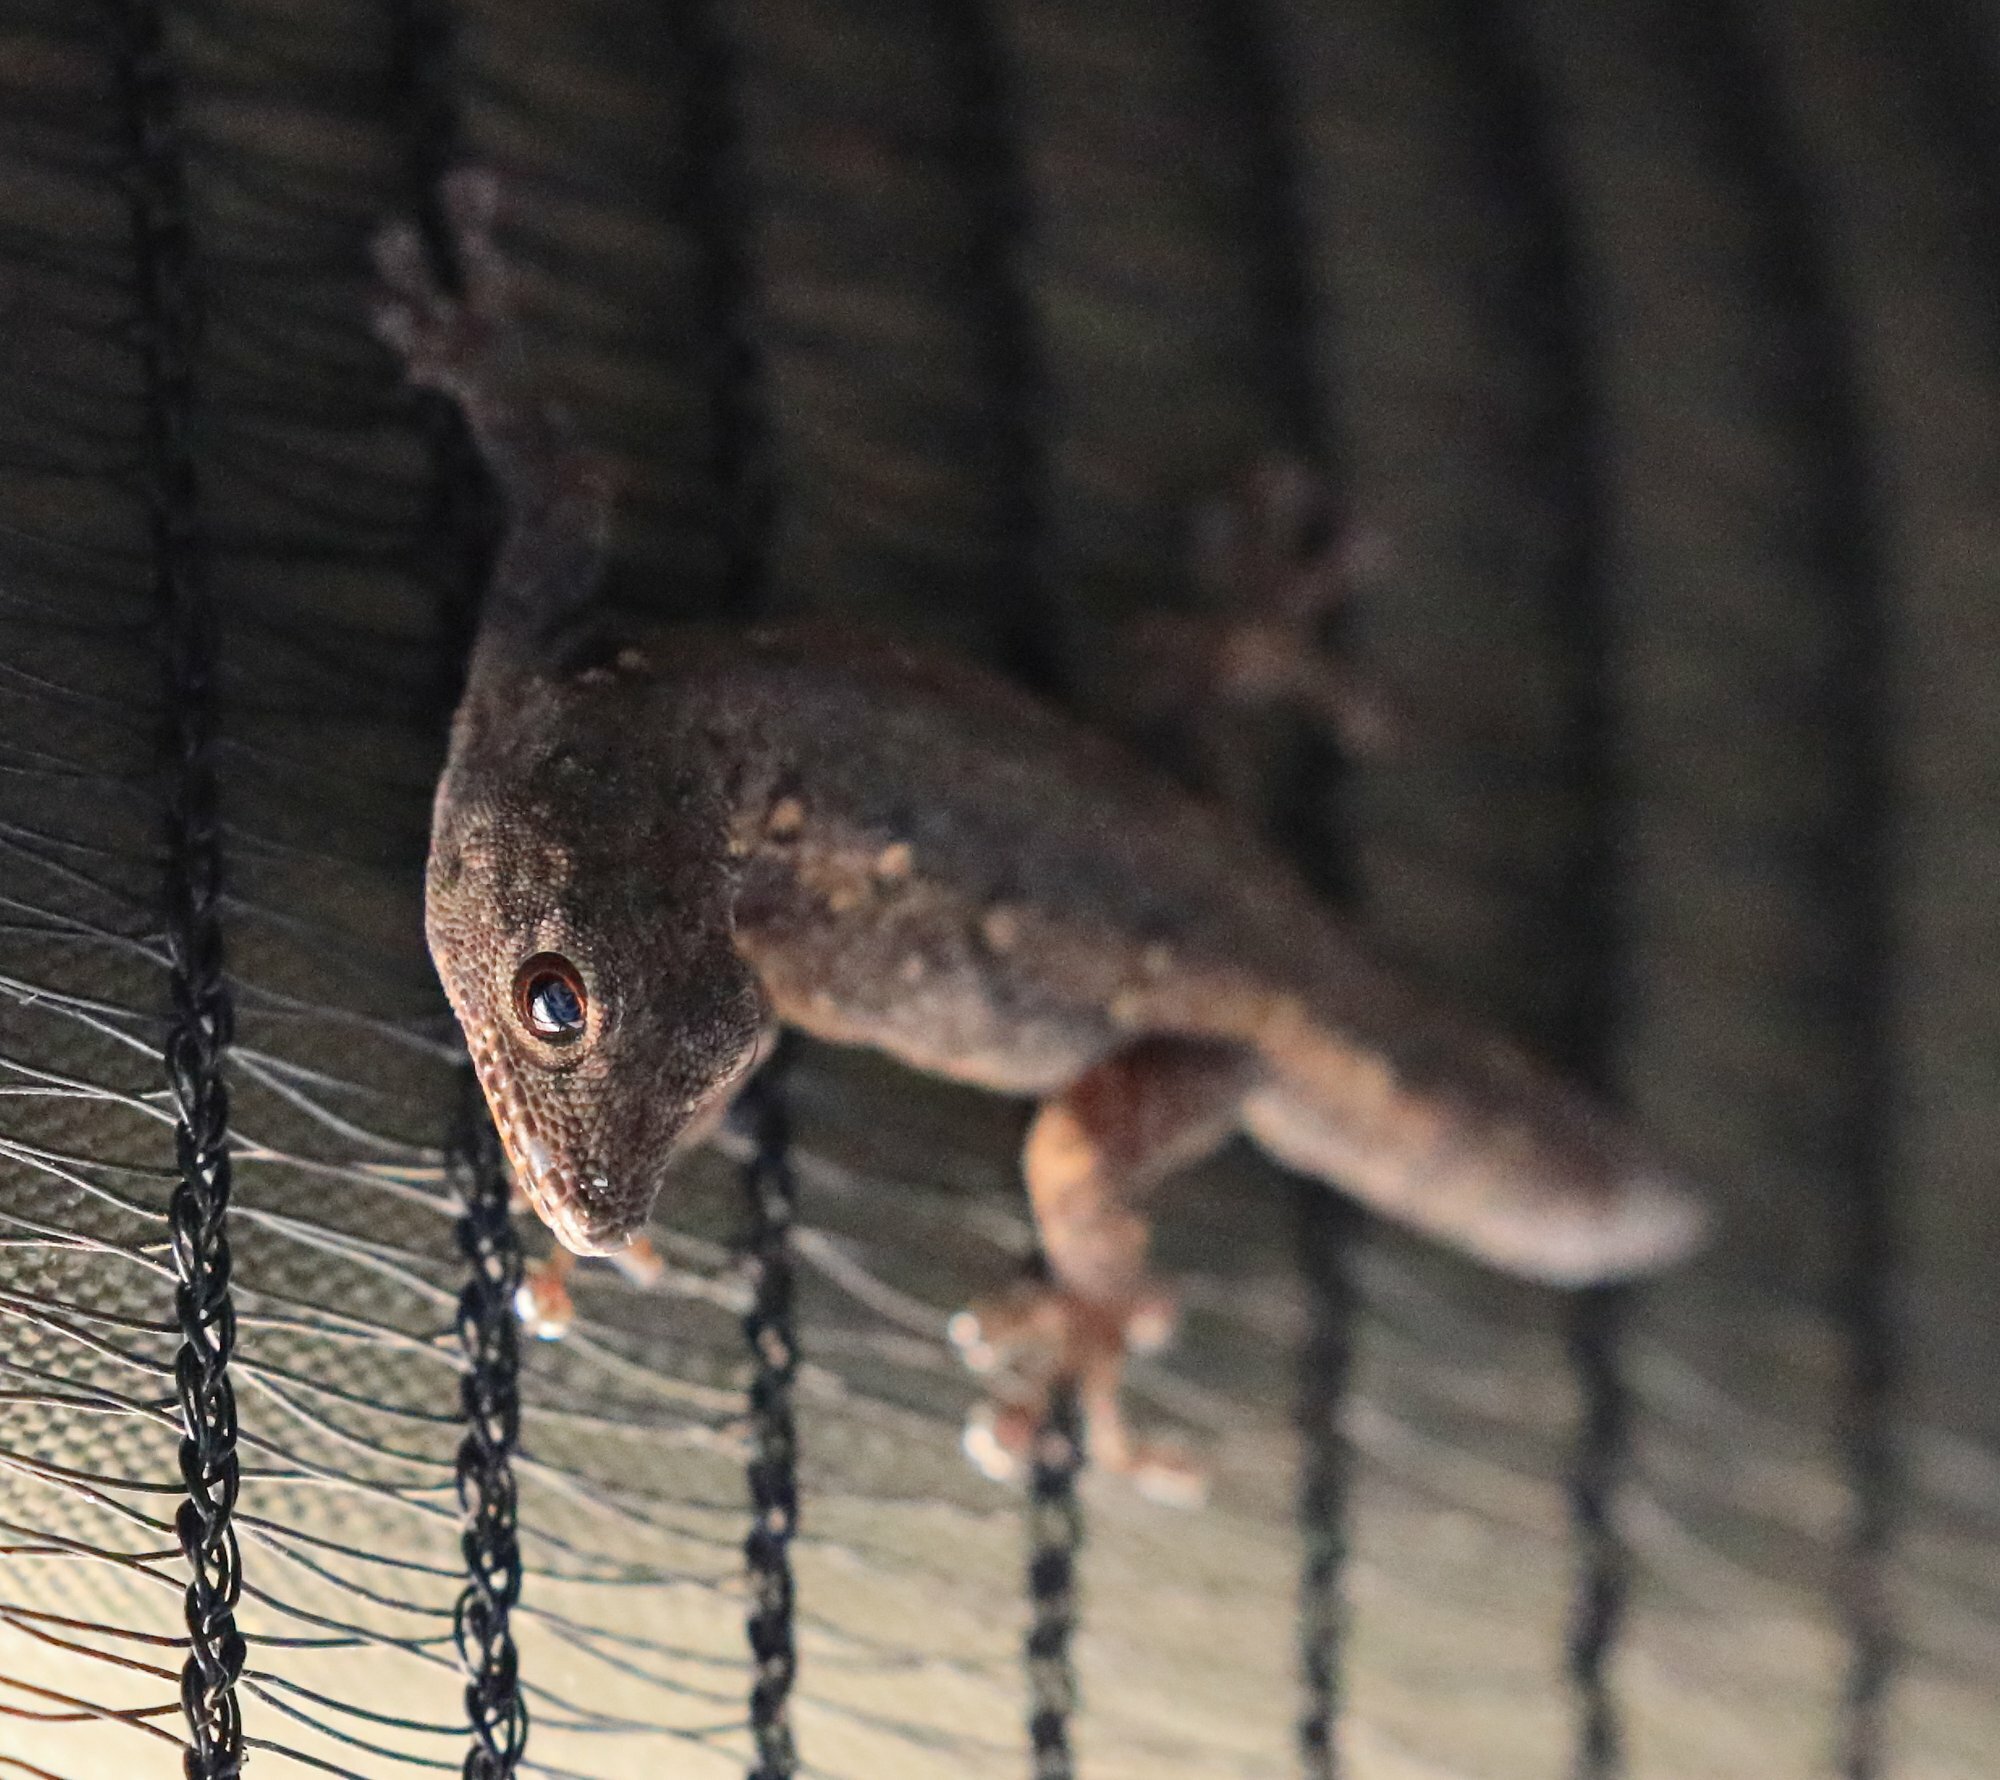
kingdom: Animalia
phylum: Chordata
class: Squamata
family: Gekkonidae
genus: Lygodactylus
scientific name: Lygodactylus chobiensis
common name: Okavango dwarf gecko
